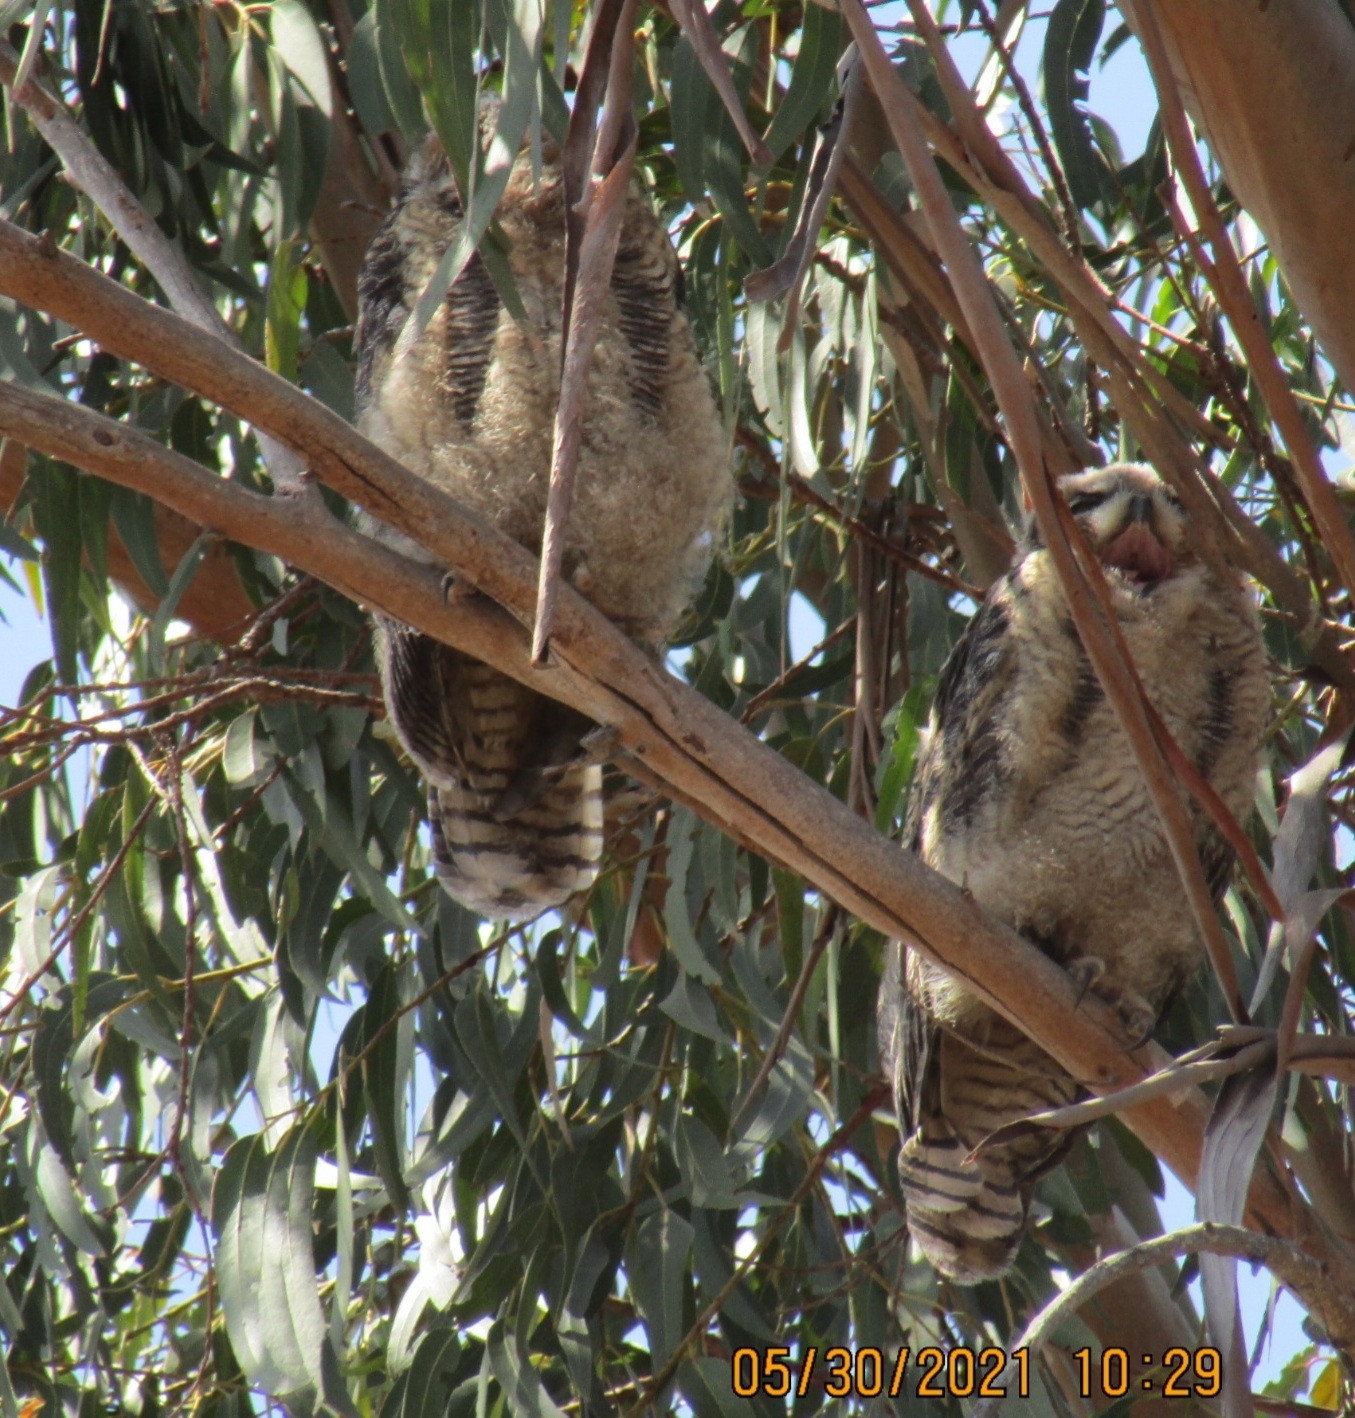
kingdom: Animalia
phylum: Chordata
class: Aves
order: Strigiformes
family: Strigidae
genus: Bubo
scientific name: Bubo virginianus
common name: Great horned owl
